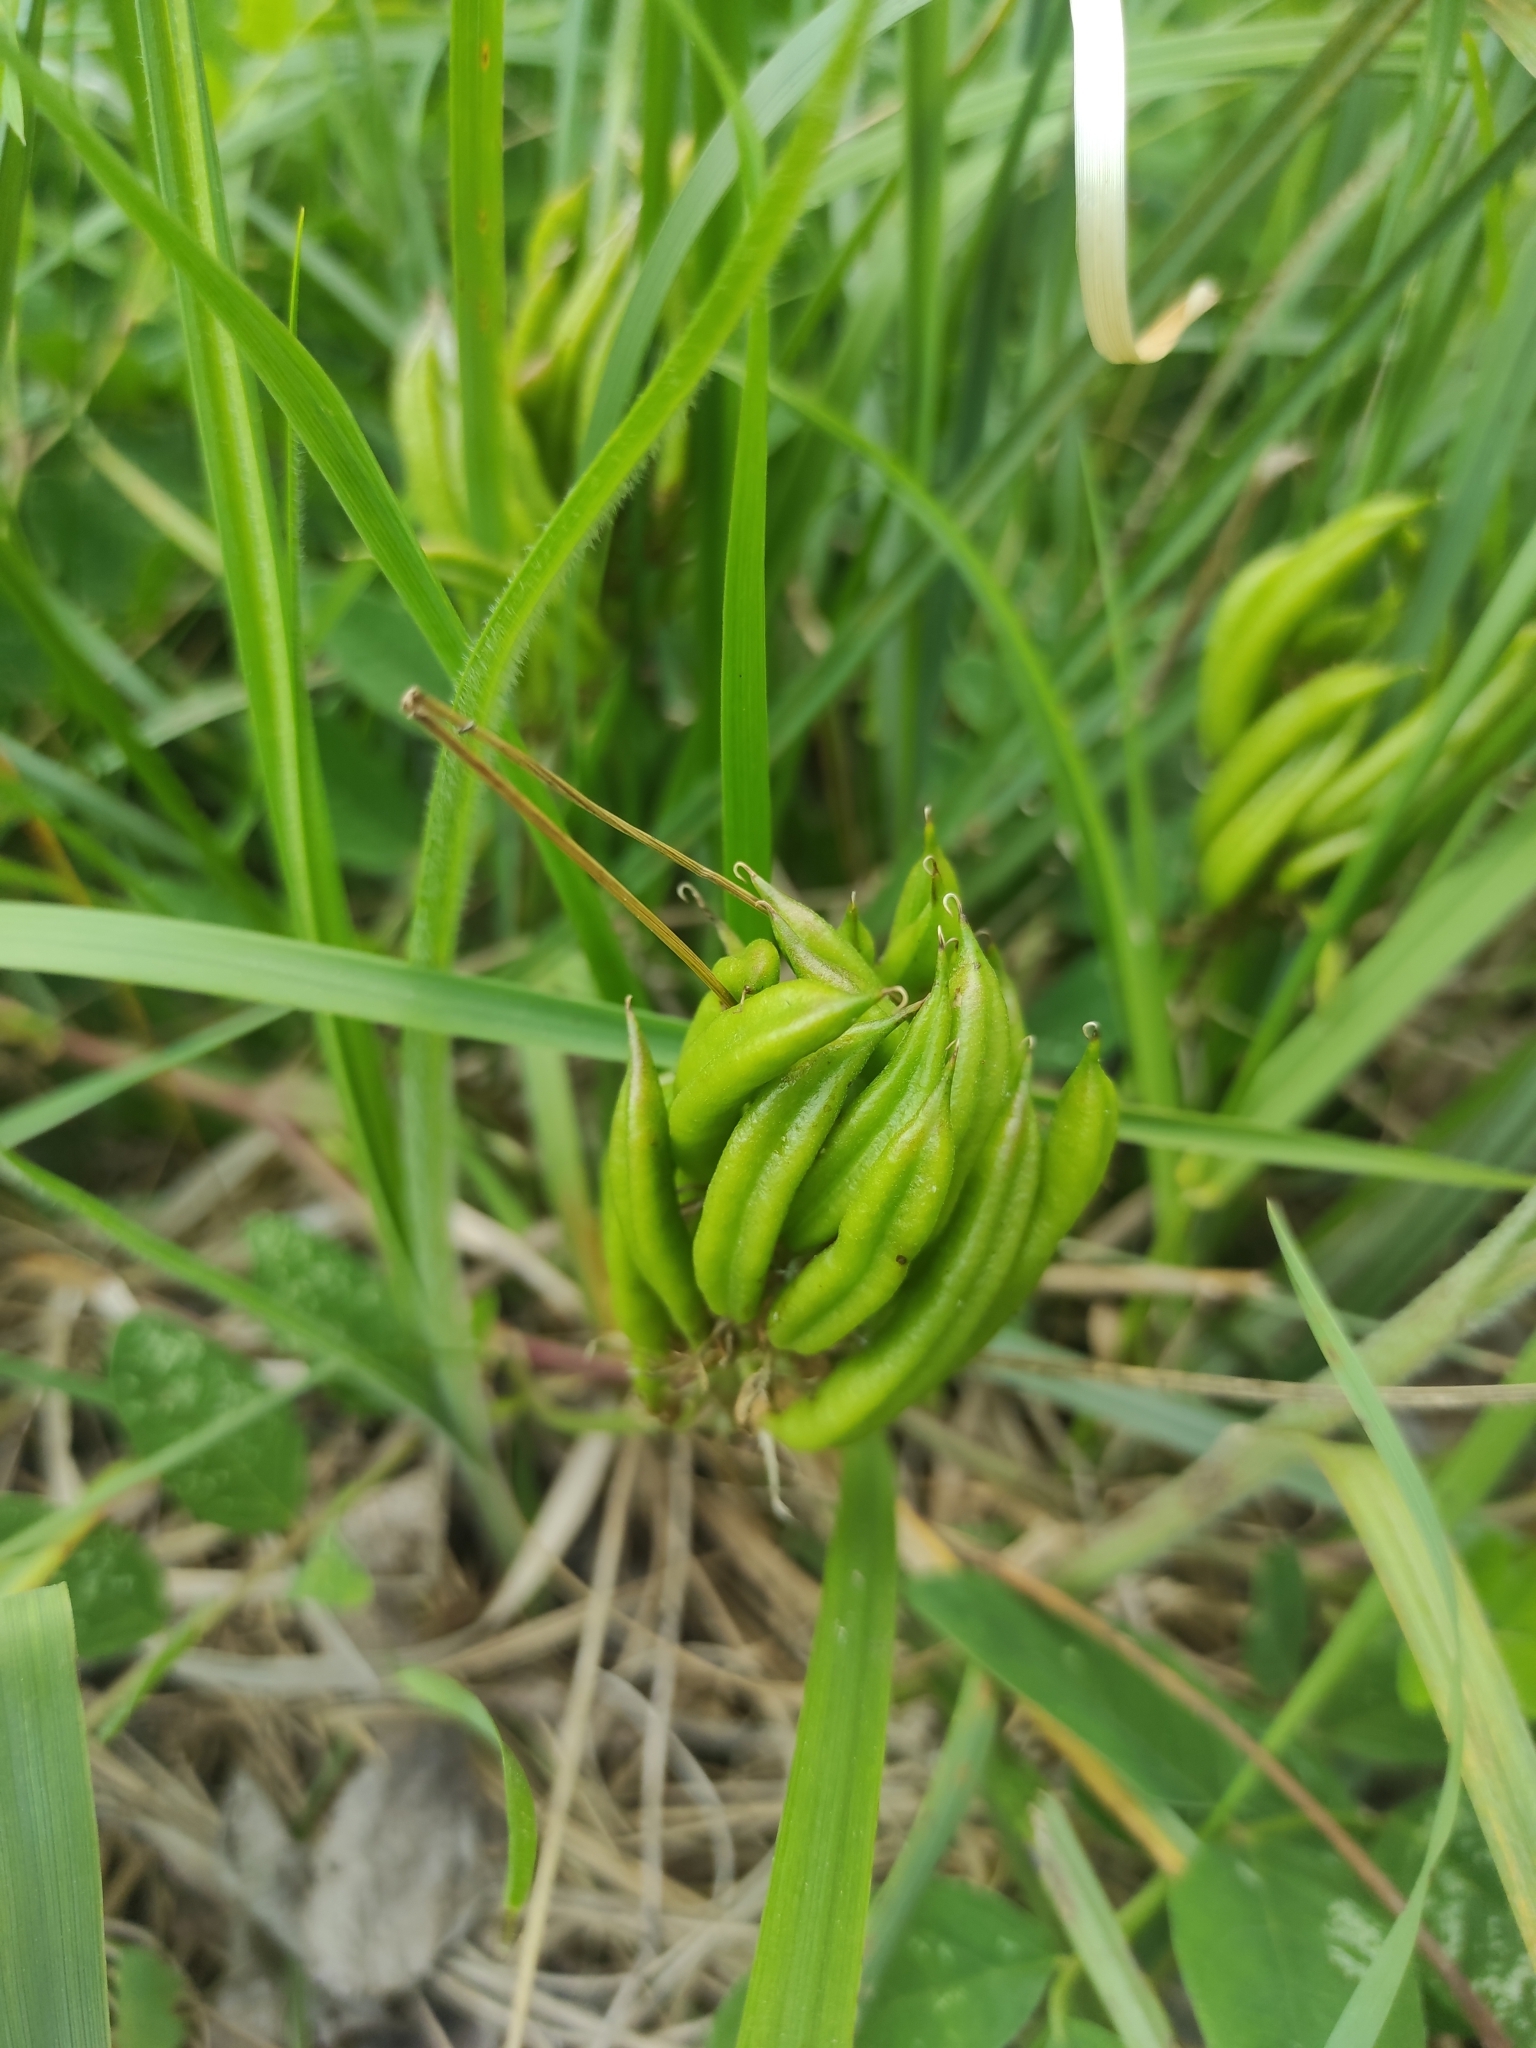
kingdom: Plantae
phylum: Tracheophyta
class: Magnoliopsida
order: Fabales
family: Fabaceae
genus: Astragalus
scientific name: Astragalus glycyphyllos
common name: Wild liquorice
